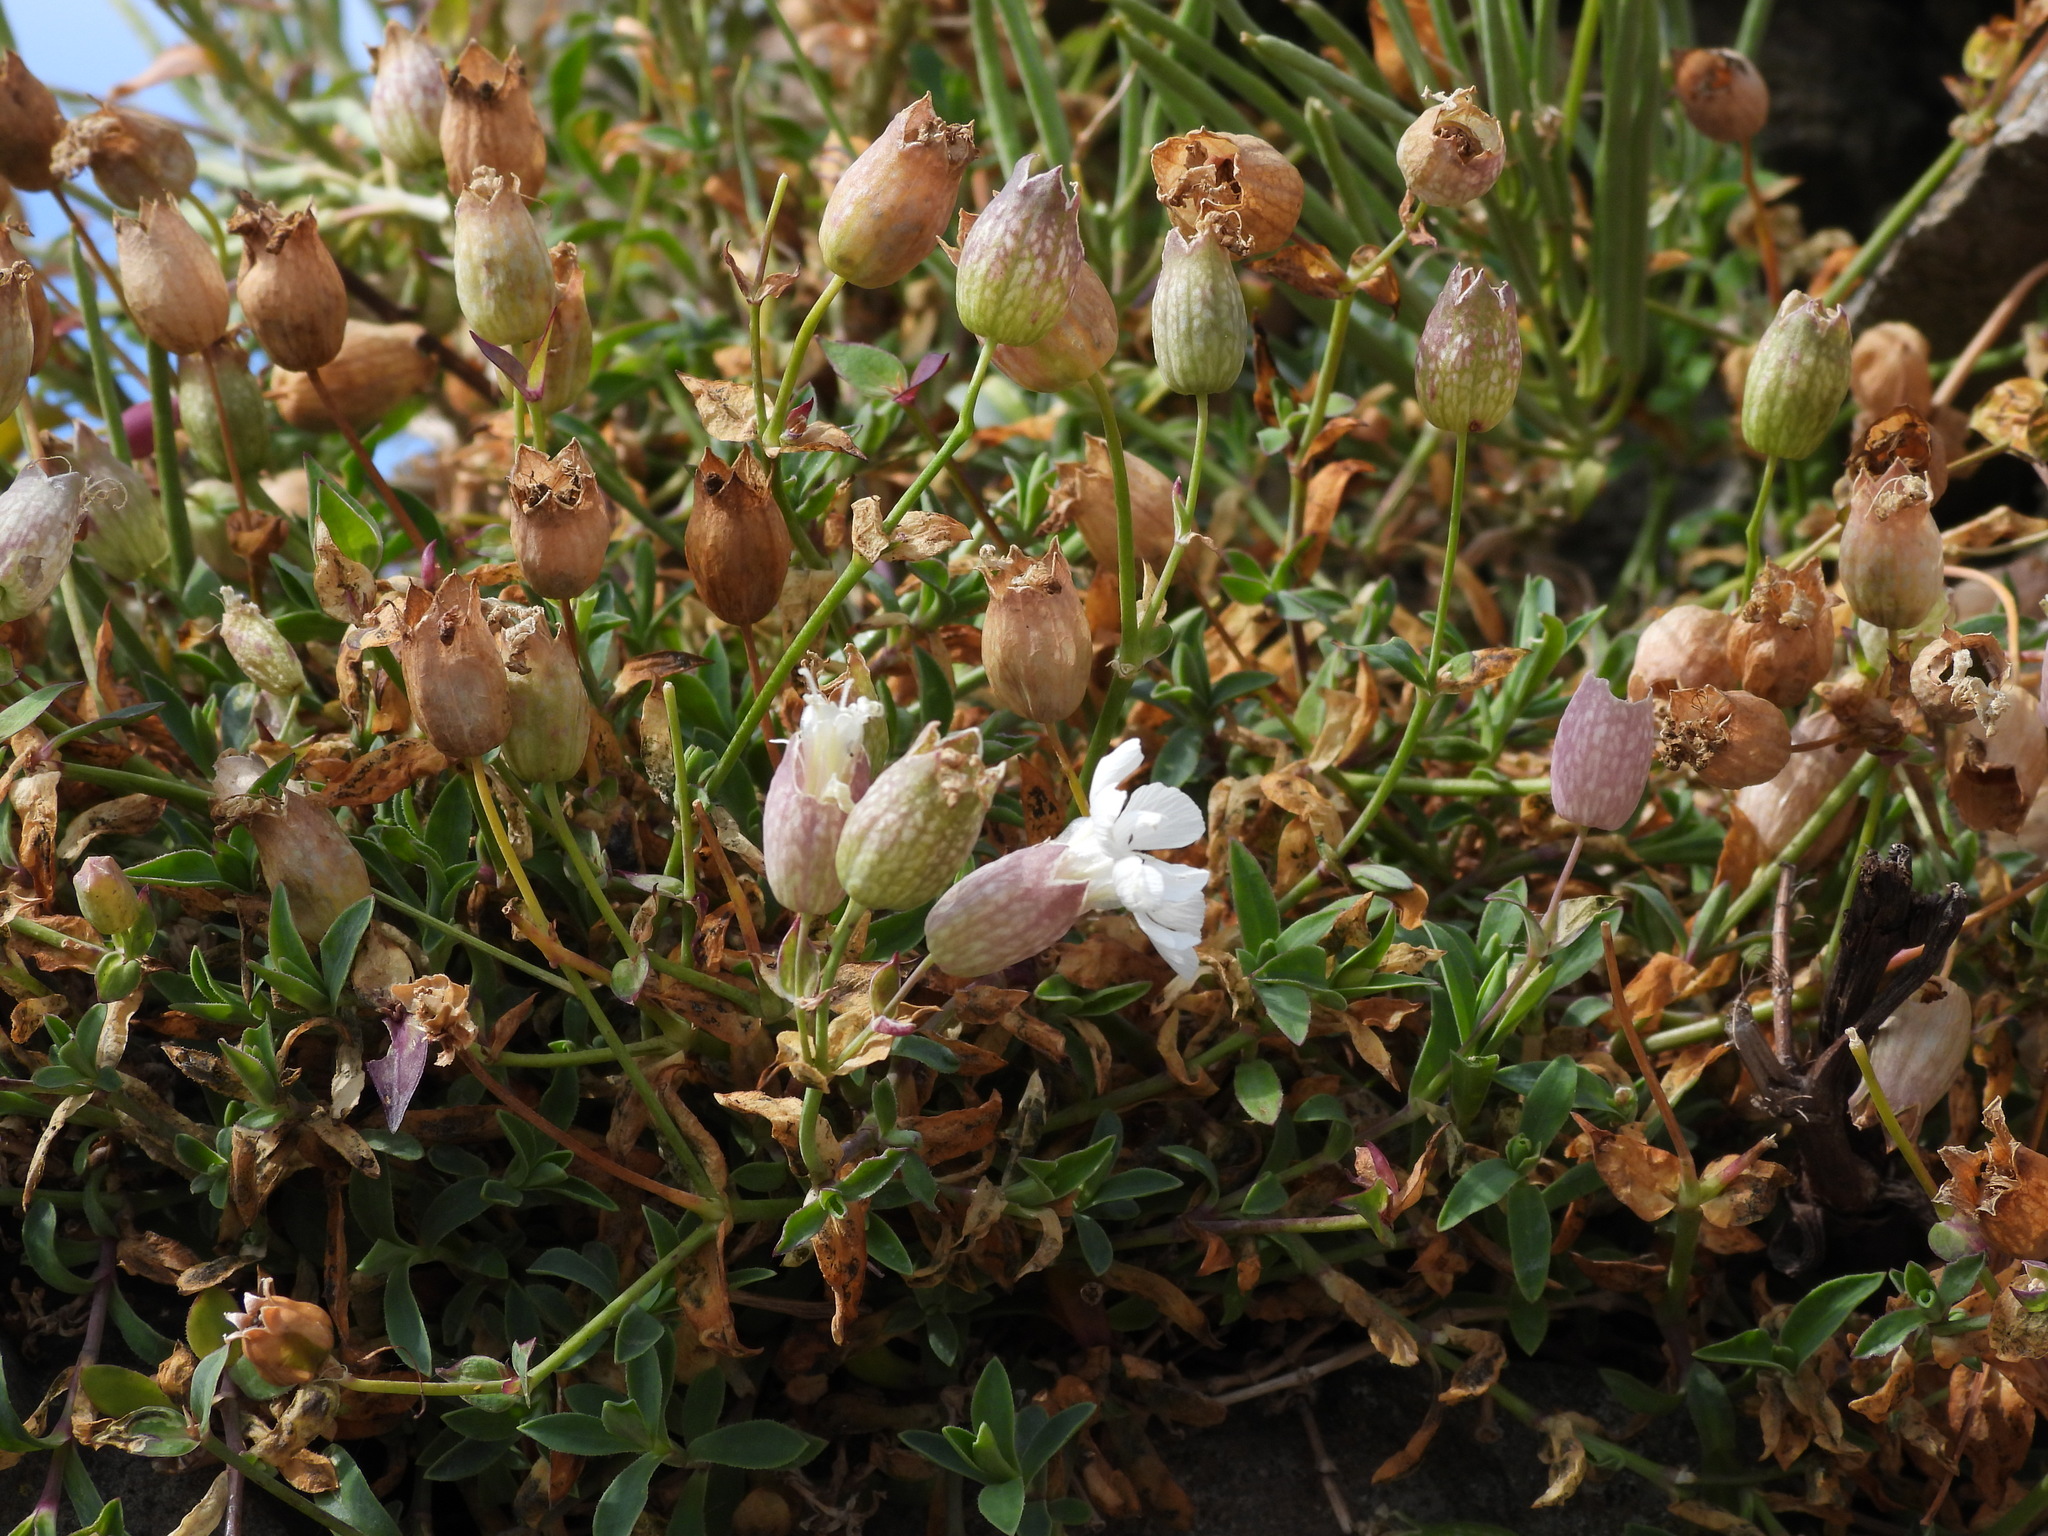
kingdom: Plantae
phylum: Tracheophyta
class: Magnoliopsida
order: Caryophyllales
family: Caryophyllaceae
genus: Silene
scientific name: Silene uniflora
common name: Sea campion
